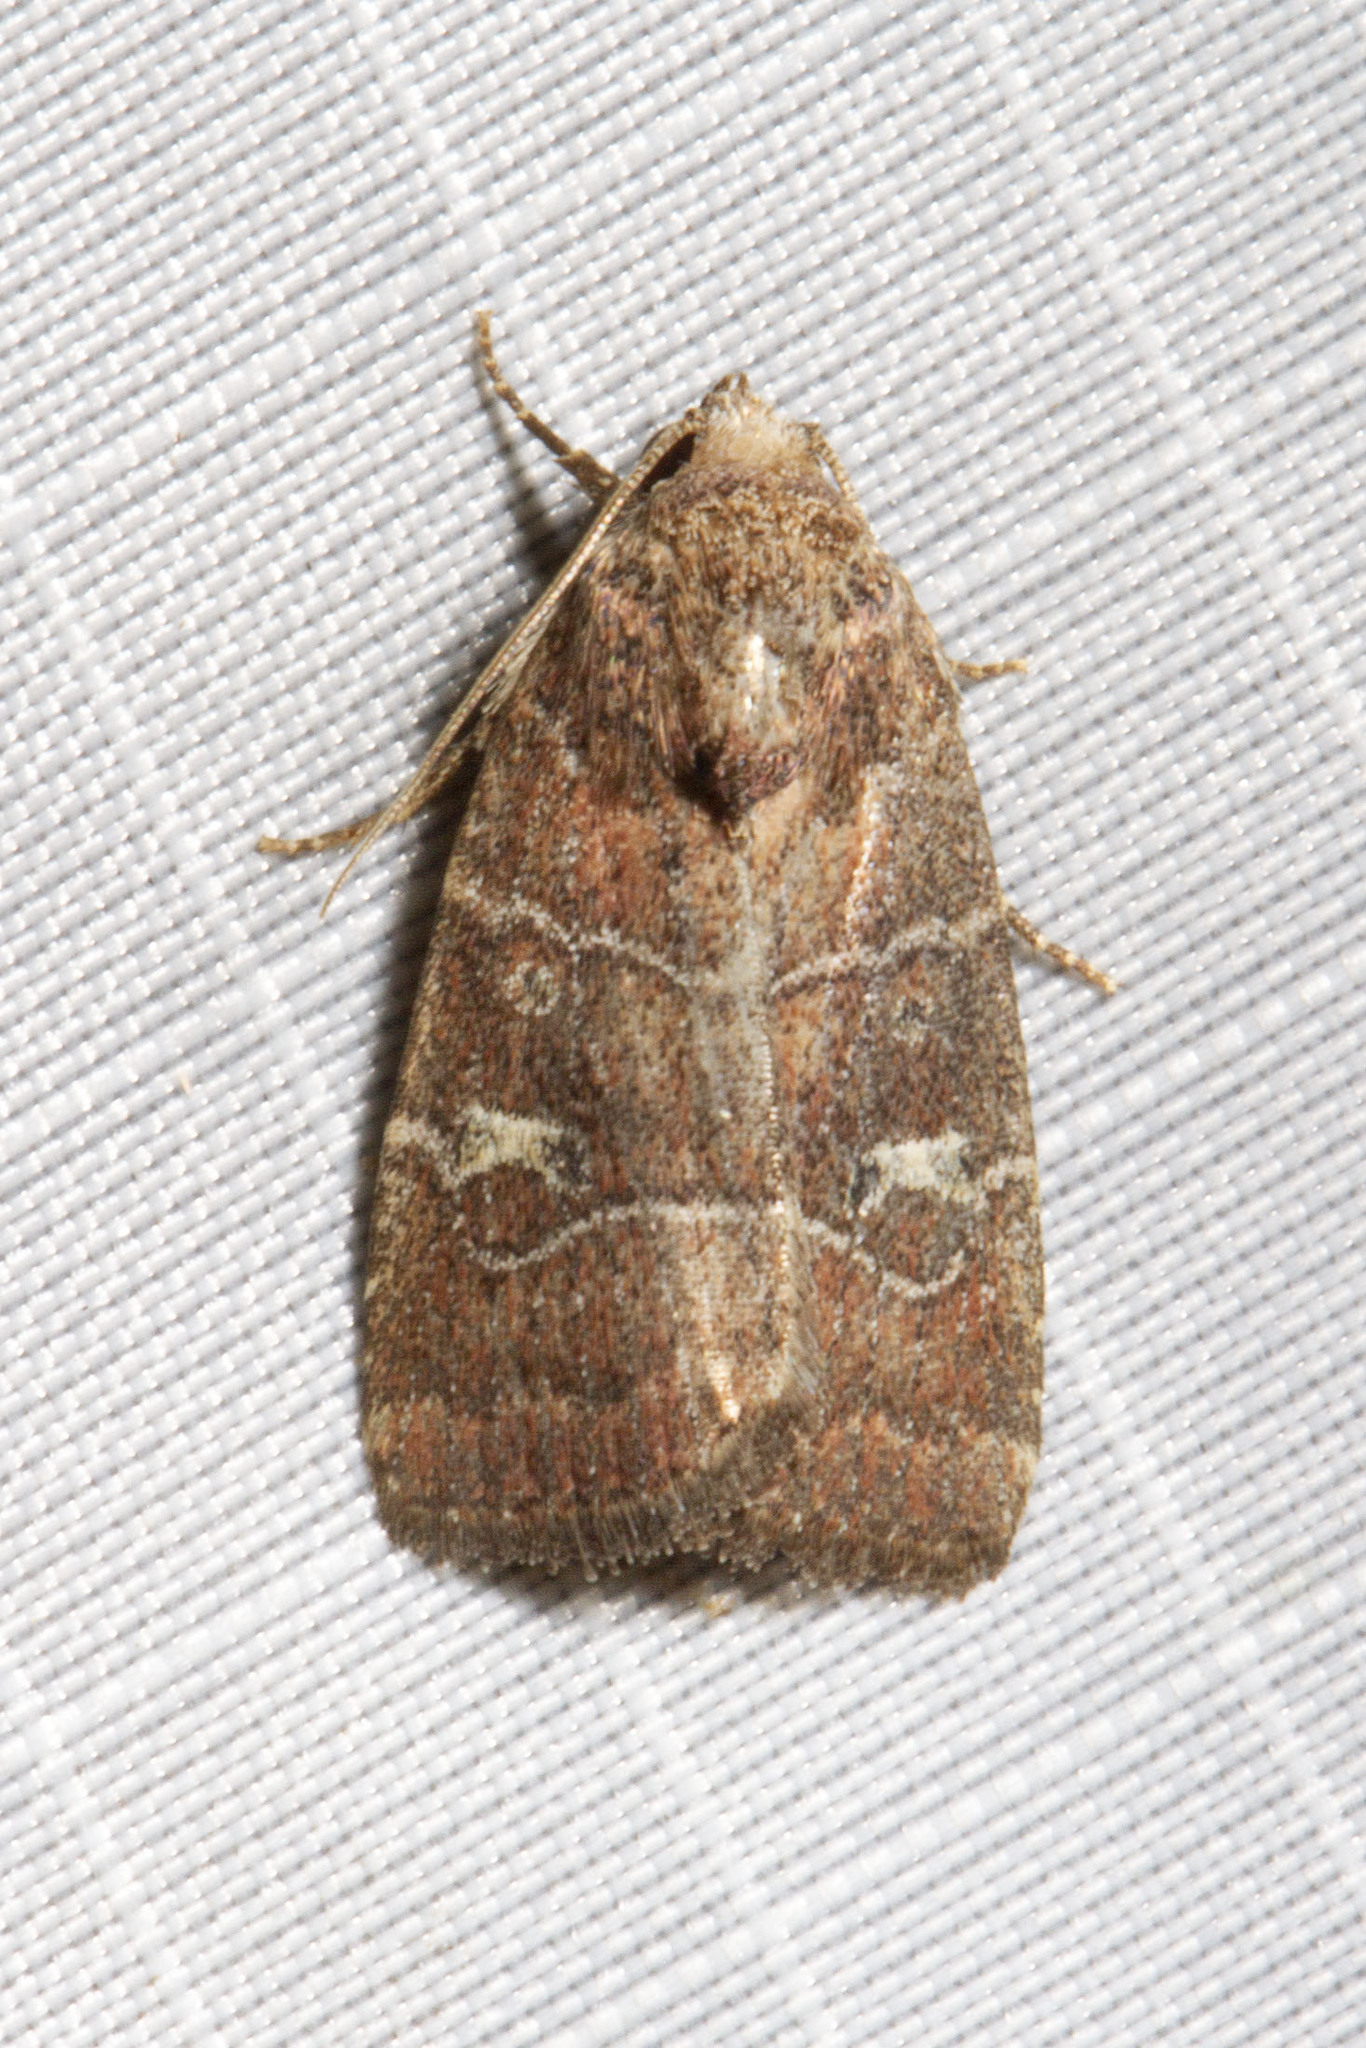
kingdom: Animalia
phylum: Arthropoda
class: Insecta
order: Lepidoptera
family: Noctuidae
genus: Elaphria
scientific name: Elaphria grata
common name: Grateful midget moth
